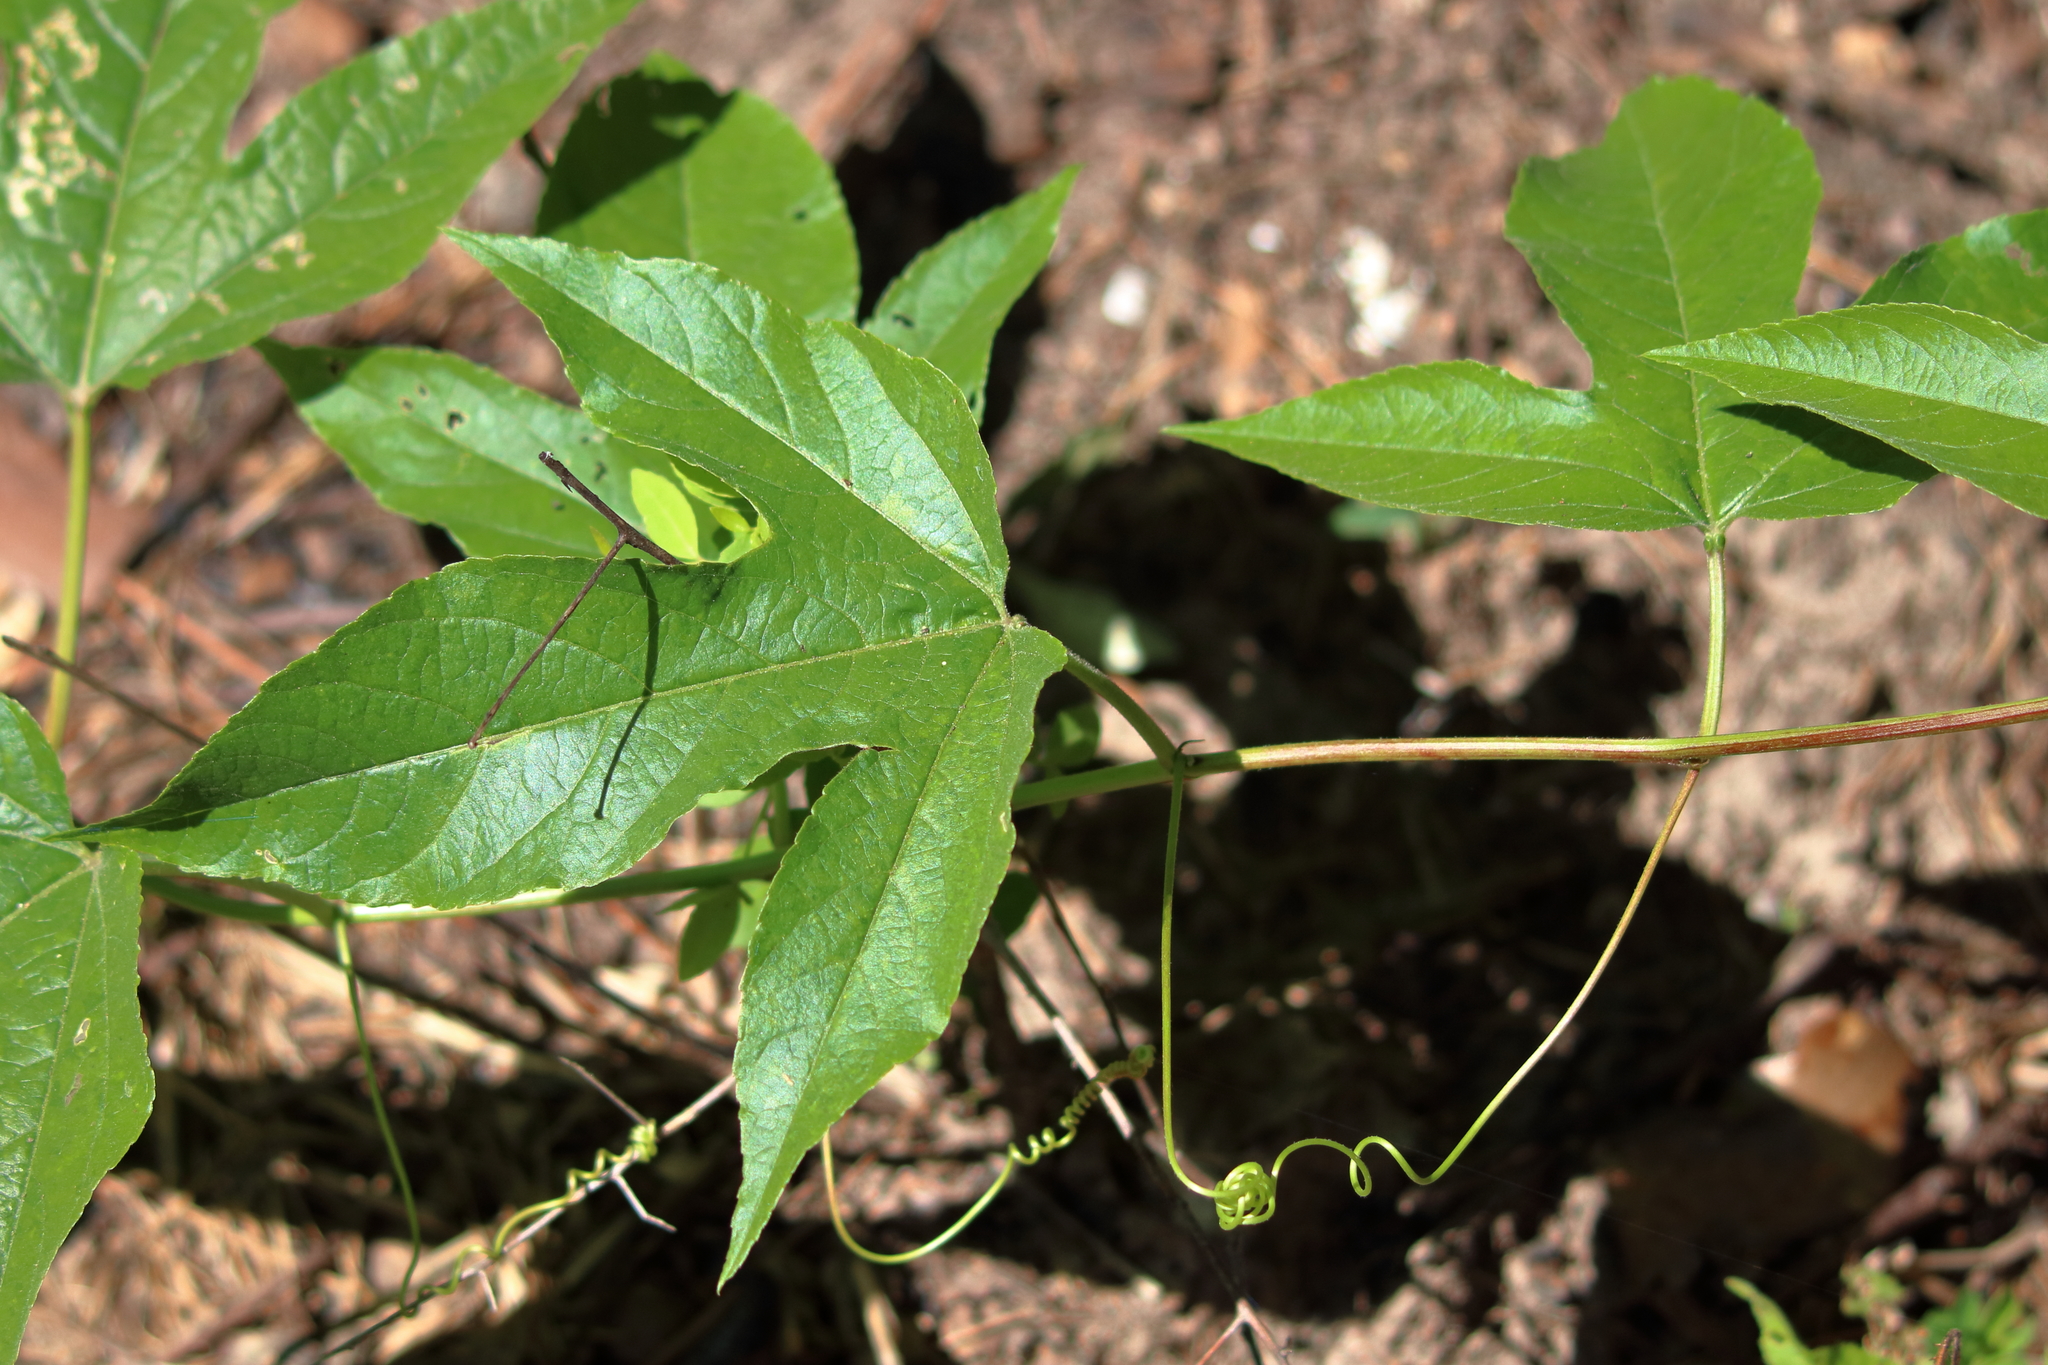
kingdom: Plantae
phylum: Tracheophyta
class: Magnoliopsida
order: Malpighiales
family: Passifloraceae
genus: Passiflora
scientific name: Passiflora incarnata
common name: Apricot-vine
